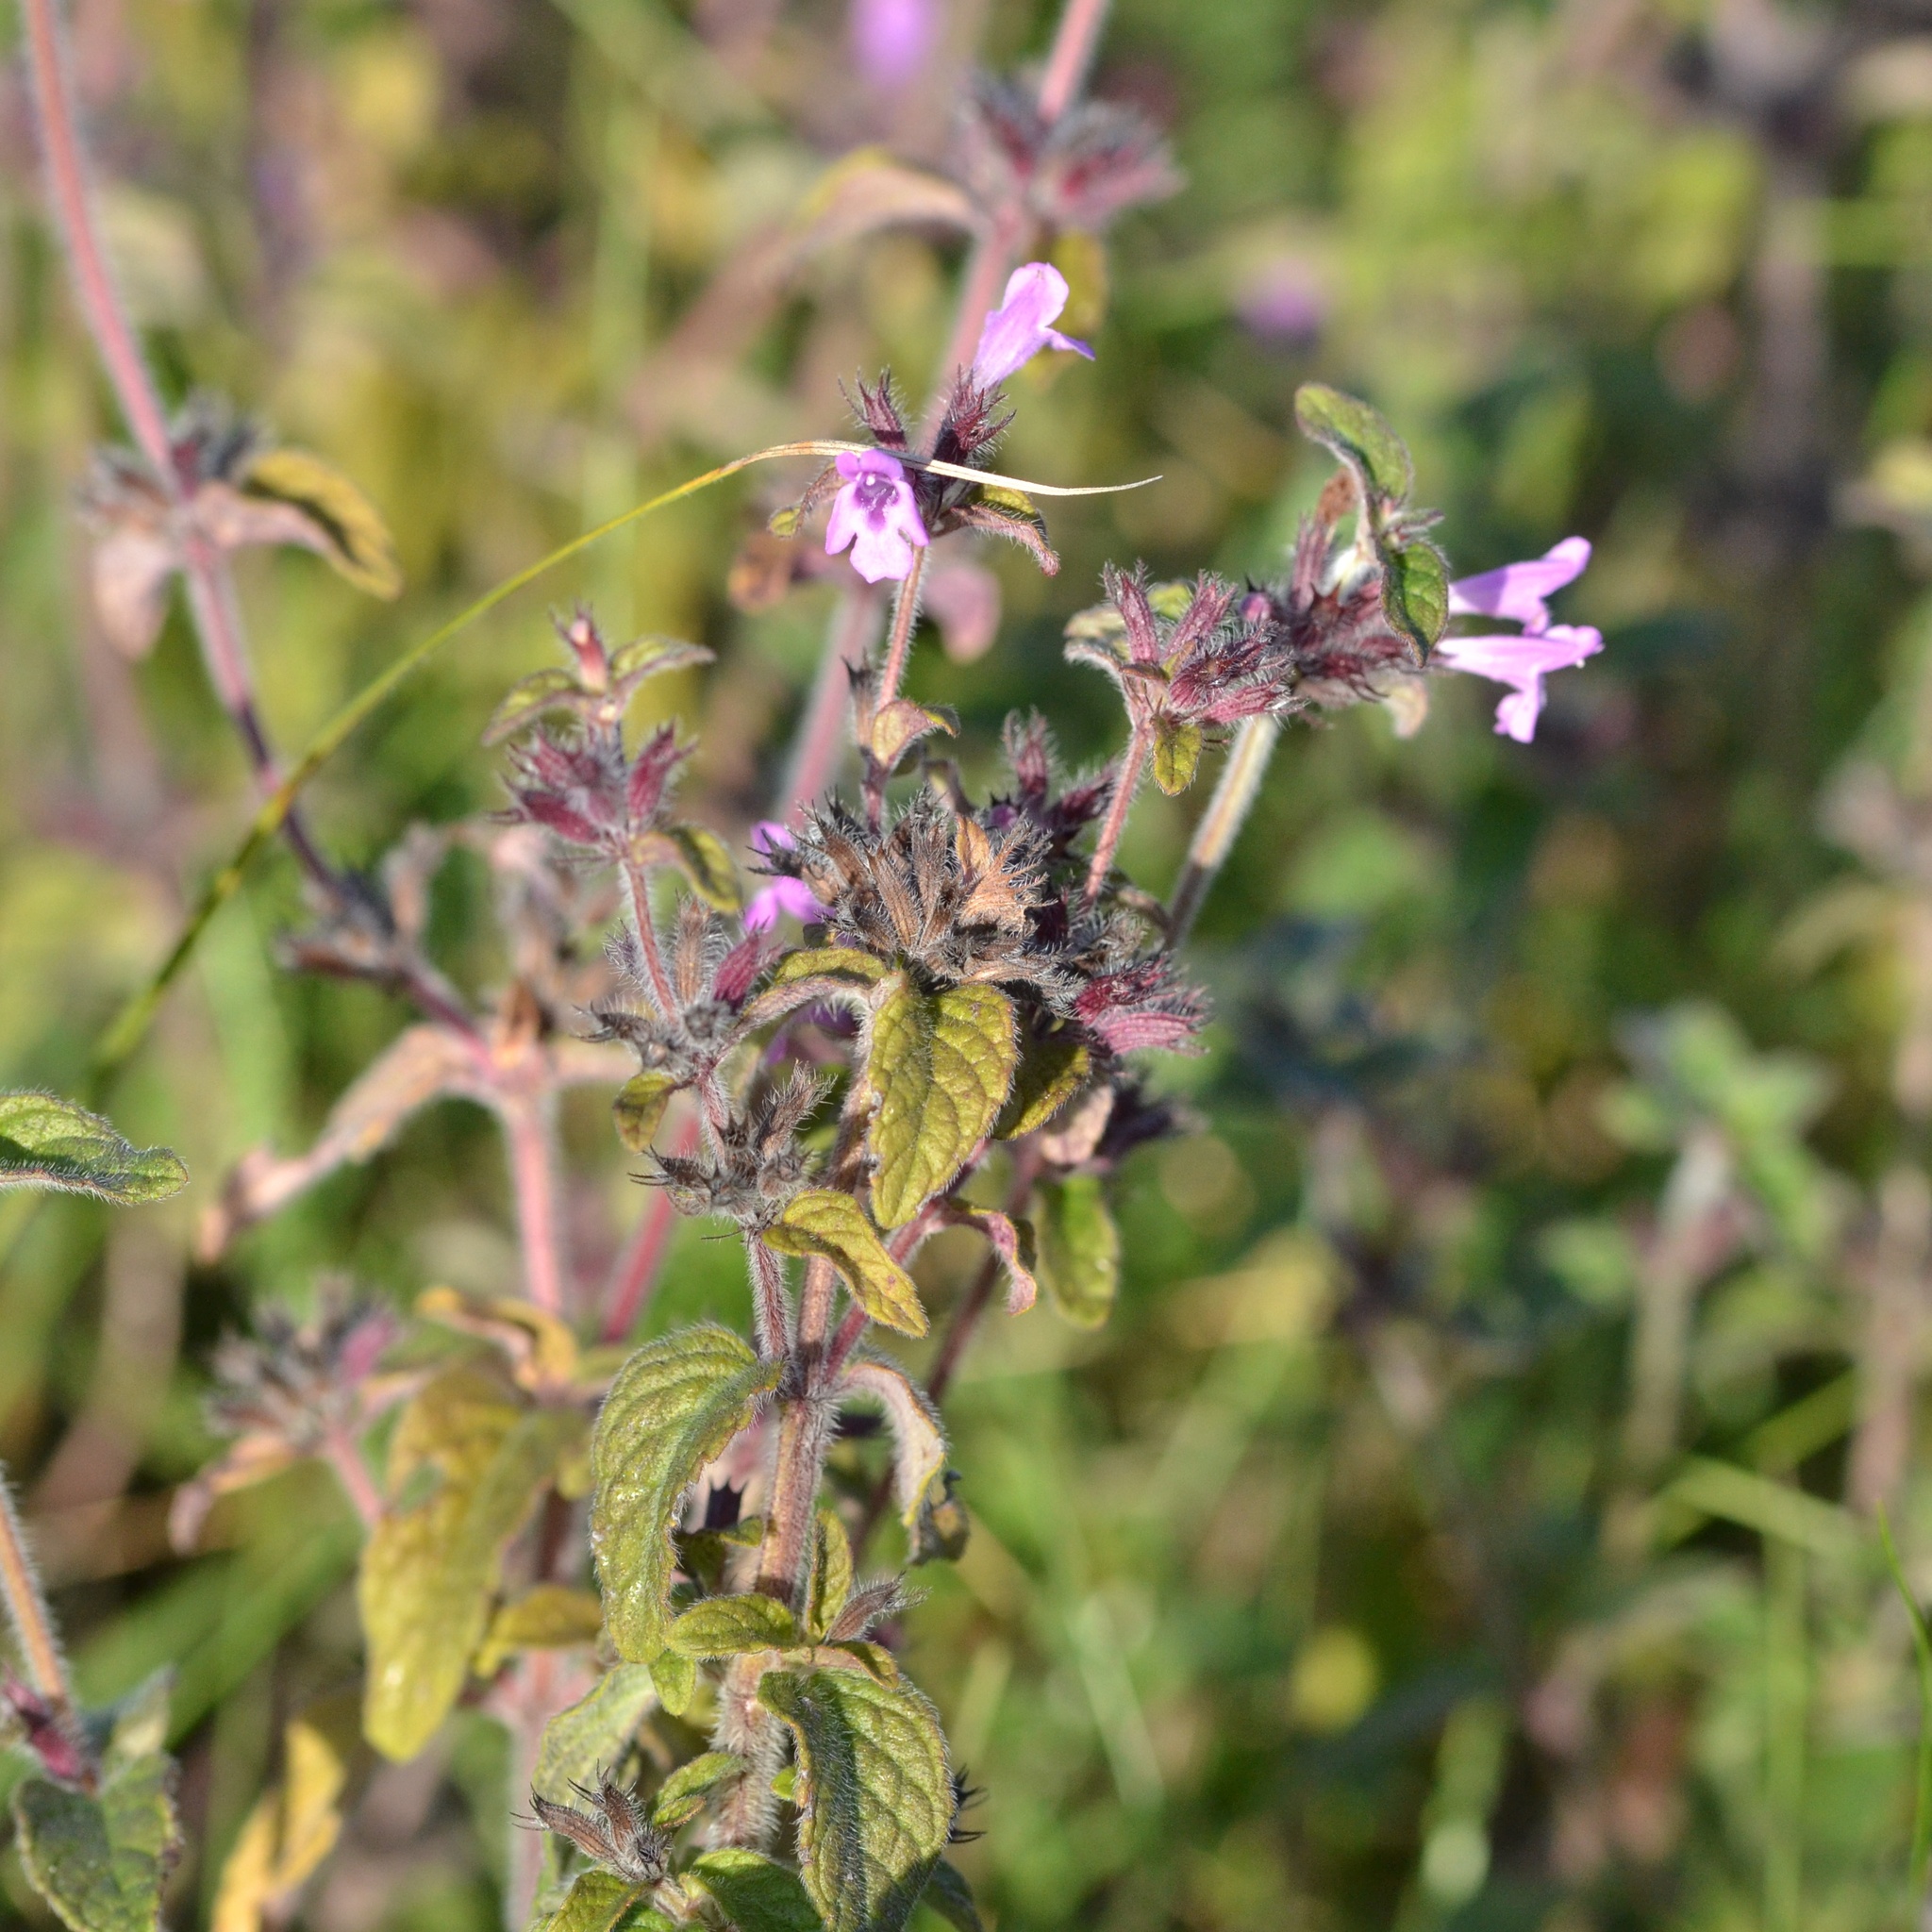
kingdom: Plantae
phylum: Tracheophyta
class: Magnoliopsida
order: Lamiales
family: Lamiaceae
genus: Clinopodium
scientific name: Clinopodium vulgare
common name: Wild basil
